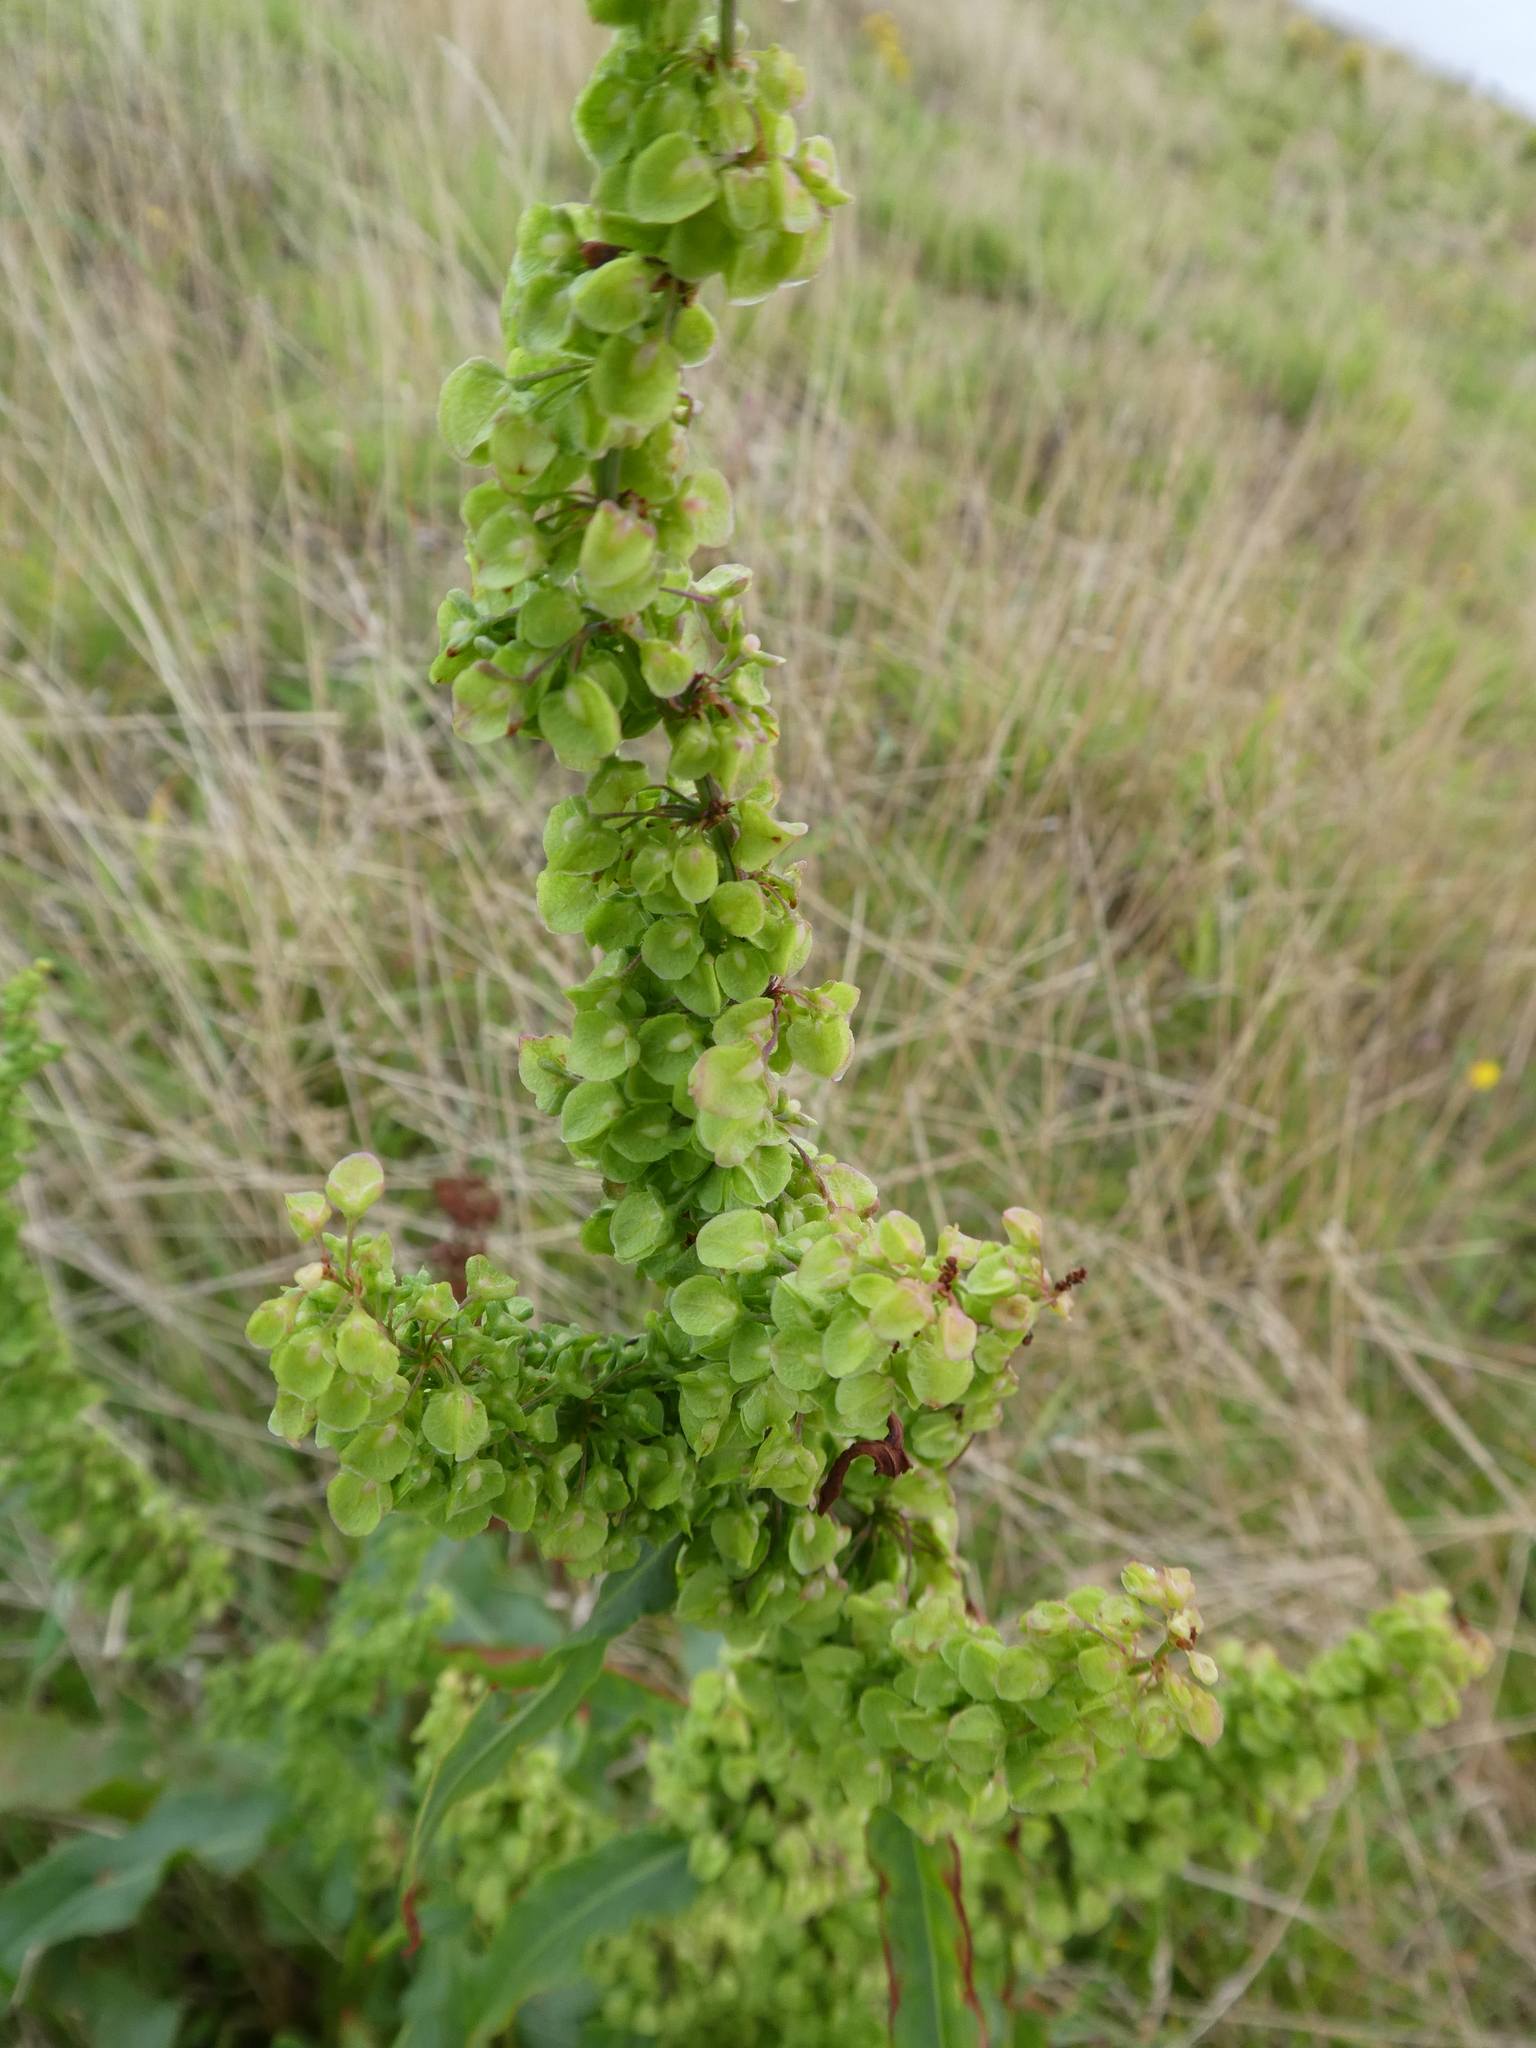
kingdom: Plantae
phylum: Tracheophyta
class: Magnoliopsida
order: Caryophyllales
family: Polygonaceae
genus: Rumex
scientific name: Rumex crispus
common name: Curled dock
